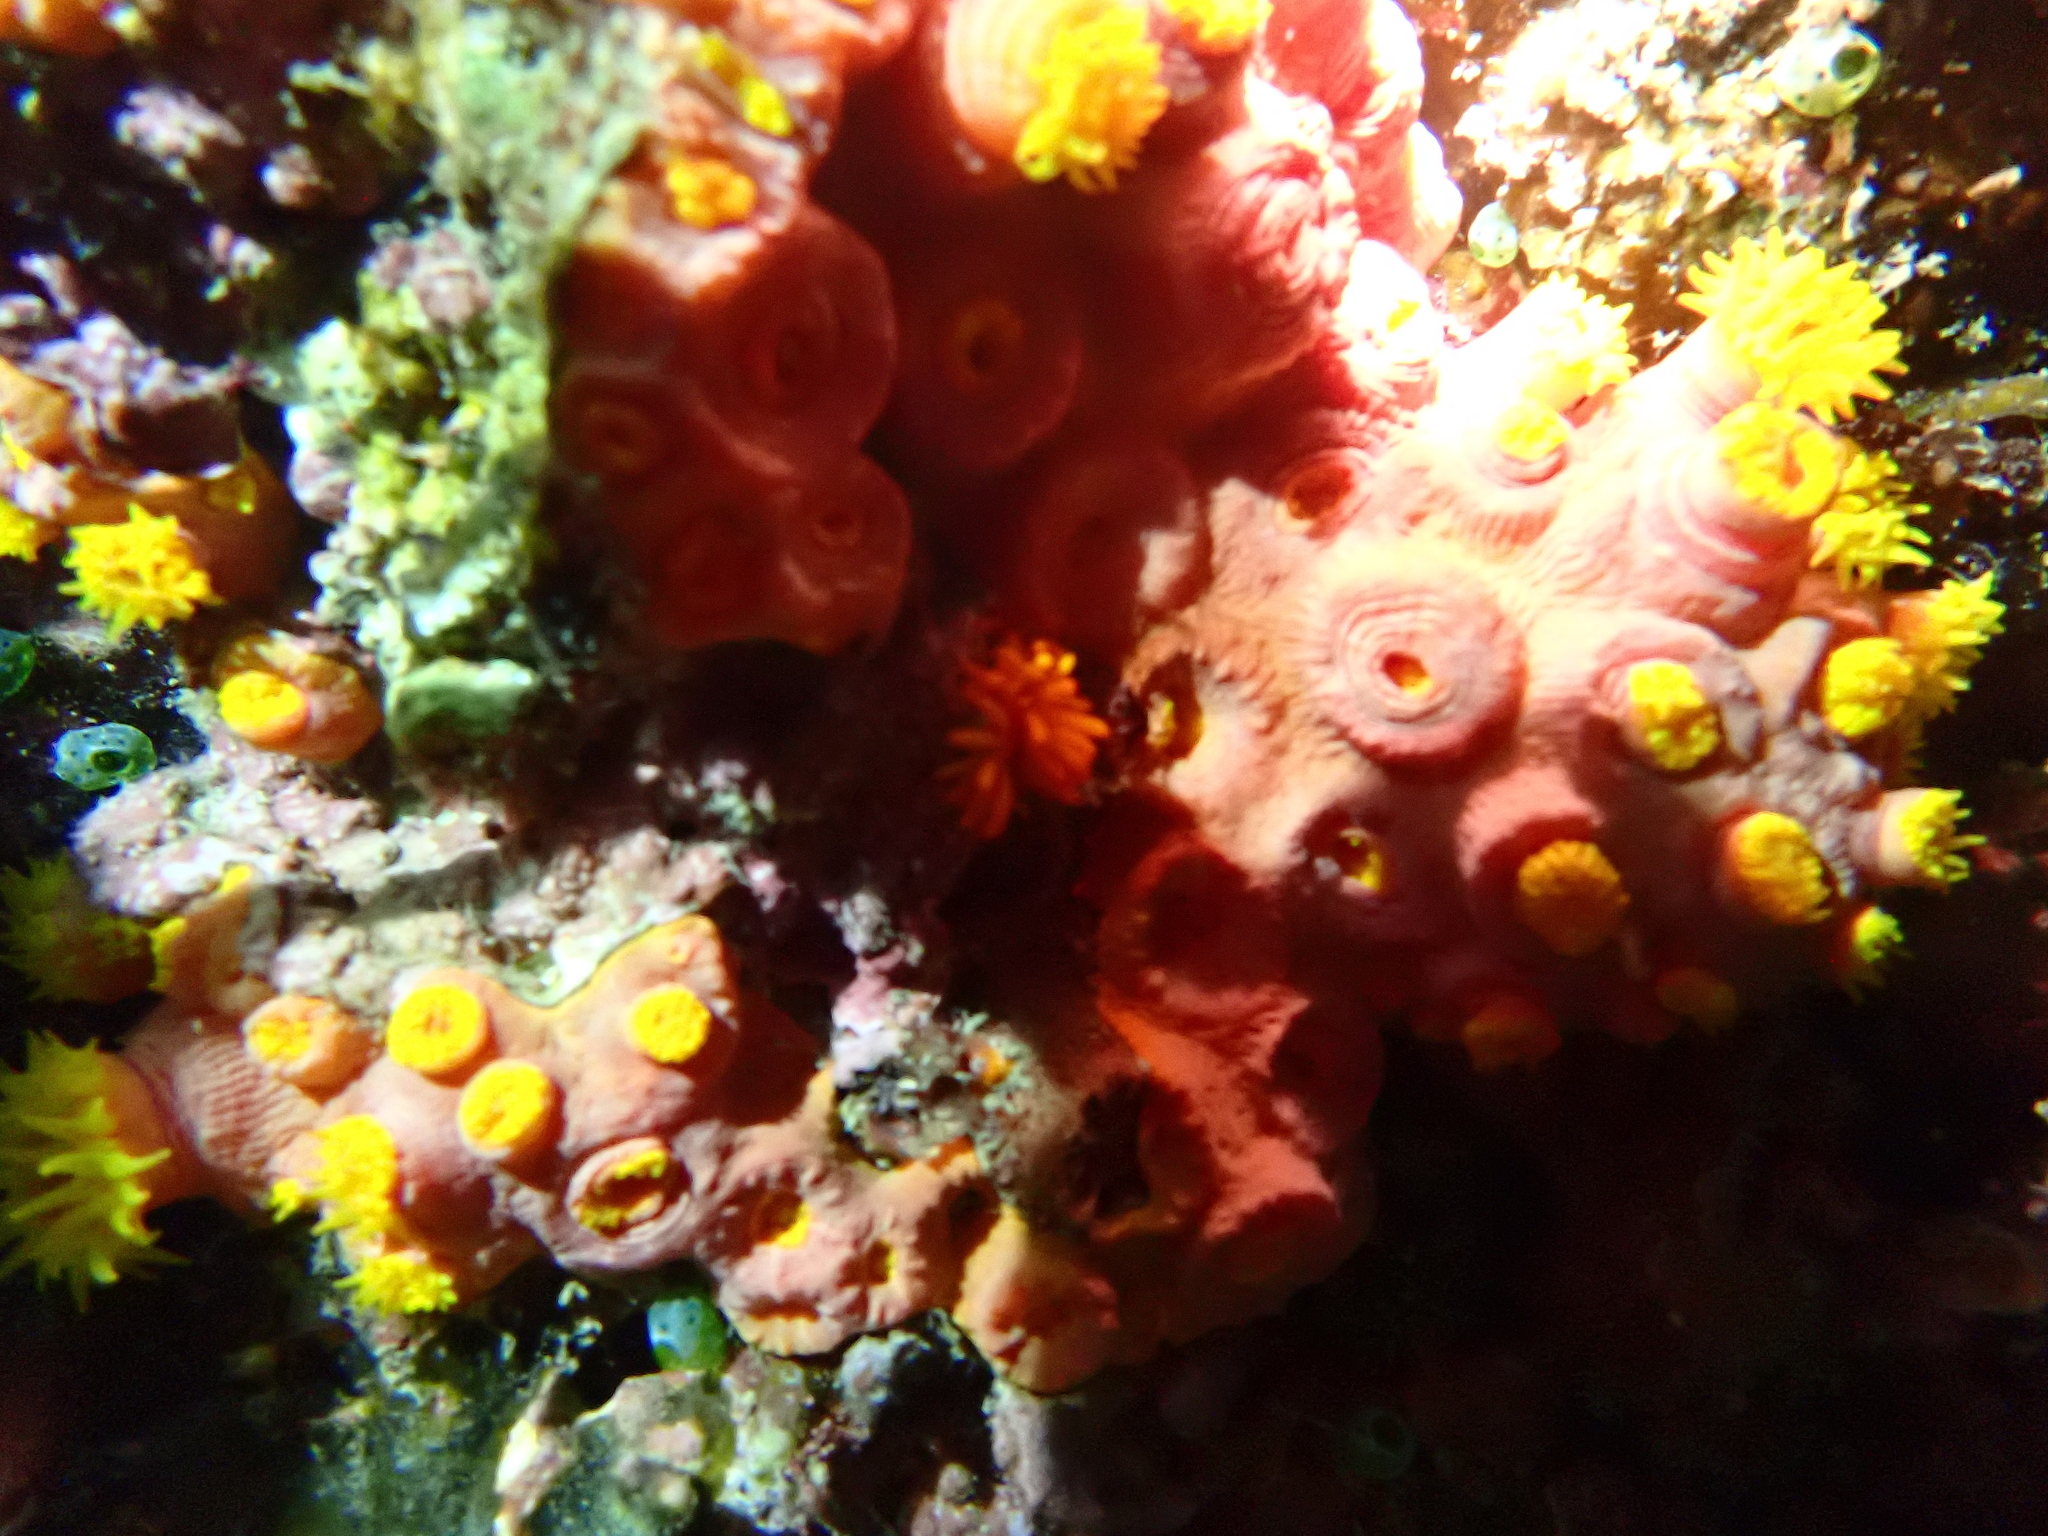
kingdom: Animalia
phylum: Mollusca
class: Gastropoda
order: Nudibranchia
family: Trinchesiidae
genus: Phestilla
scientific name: Phestilla melanobrachia
